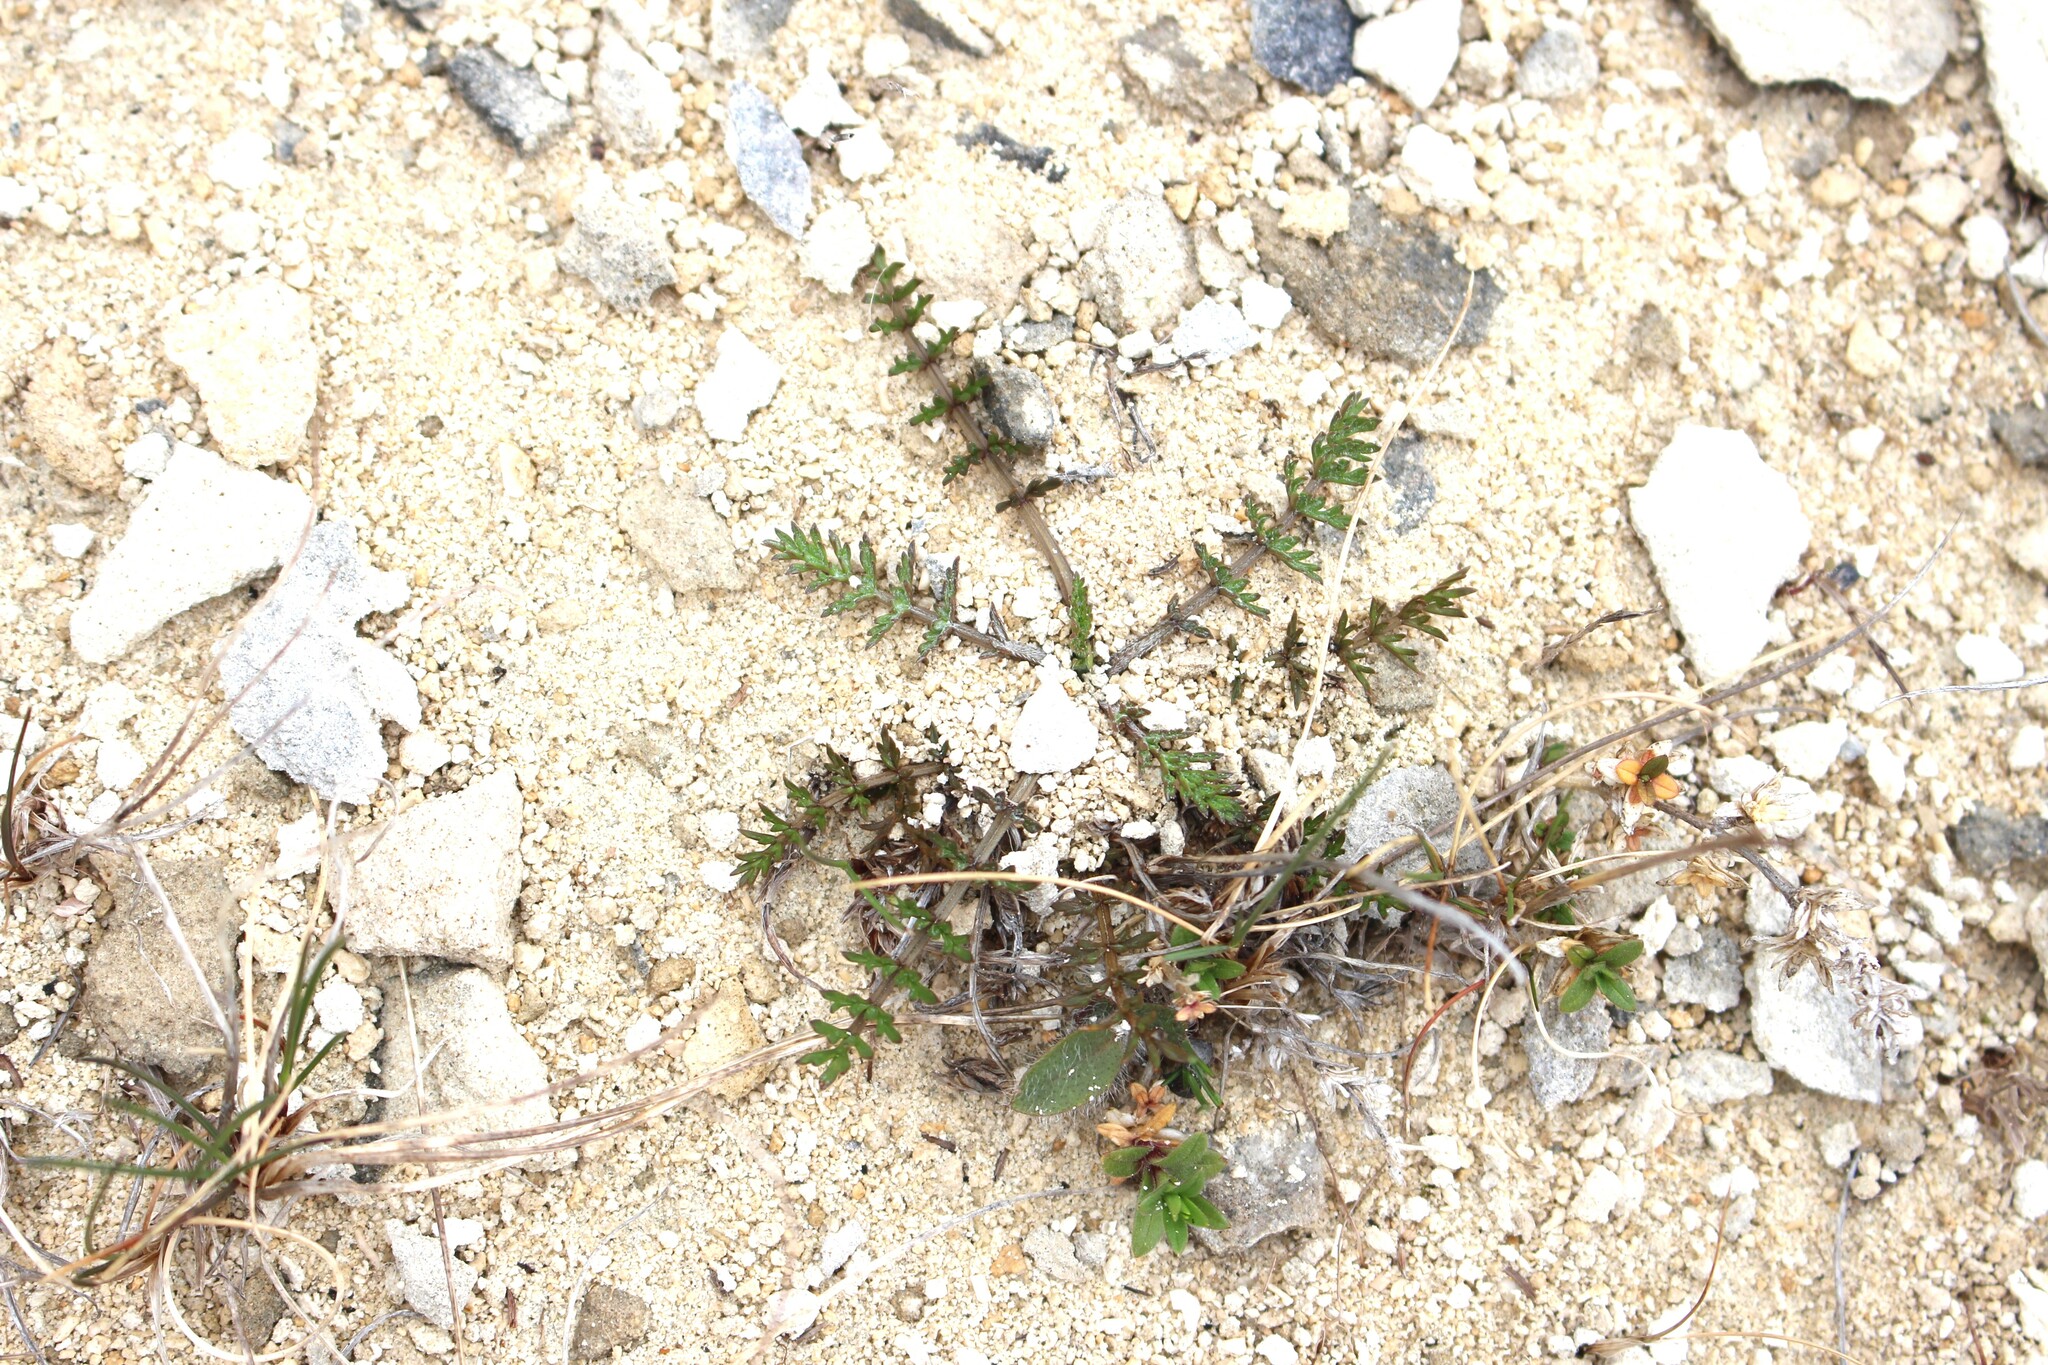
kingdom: Plantae
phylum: Tracheophyta
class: Magnoliopsida
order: Apiales
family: Apiaceae
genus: Chaerophyllum
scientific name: Chaerophyllum novae-zelandiae
